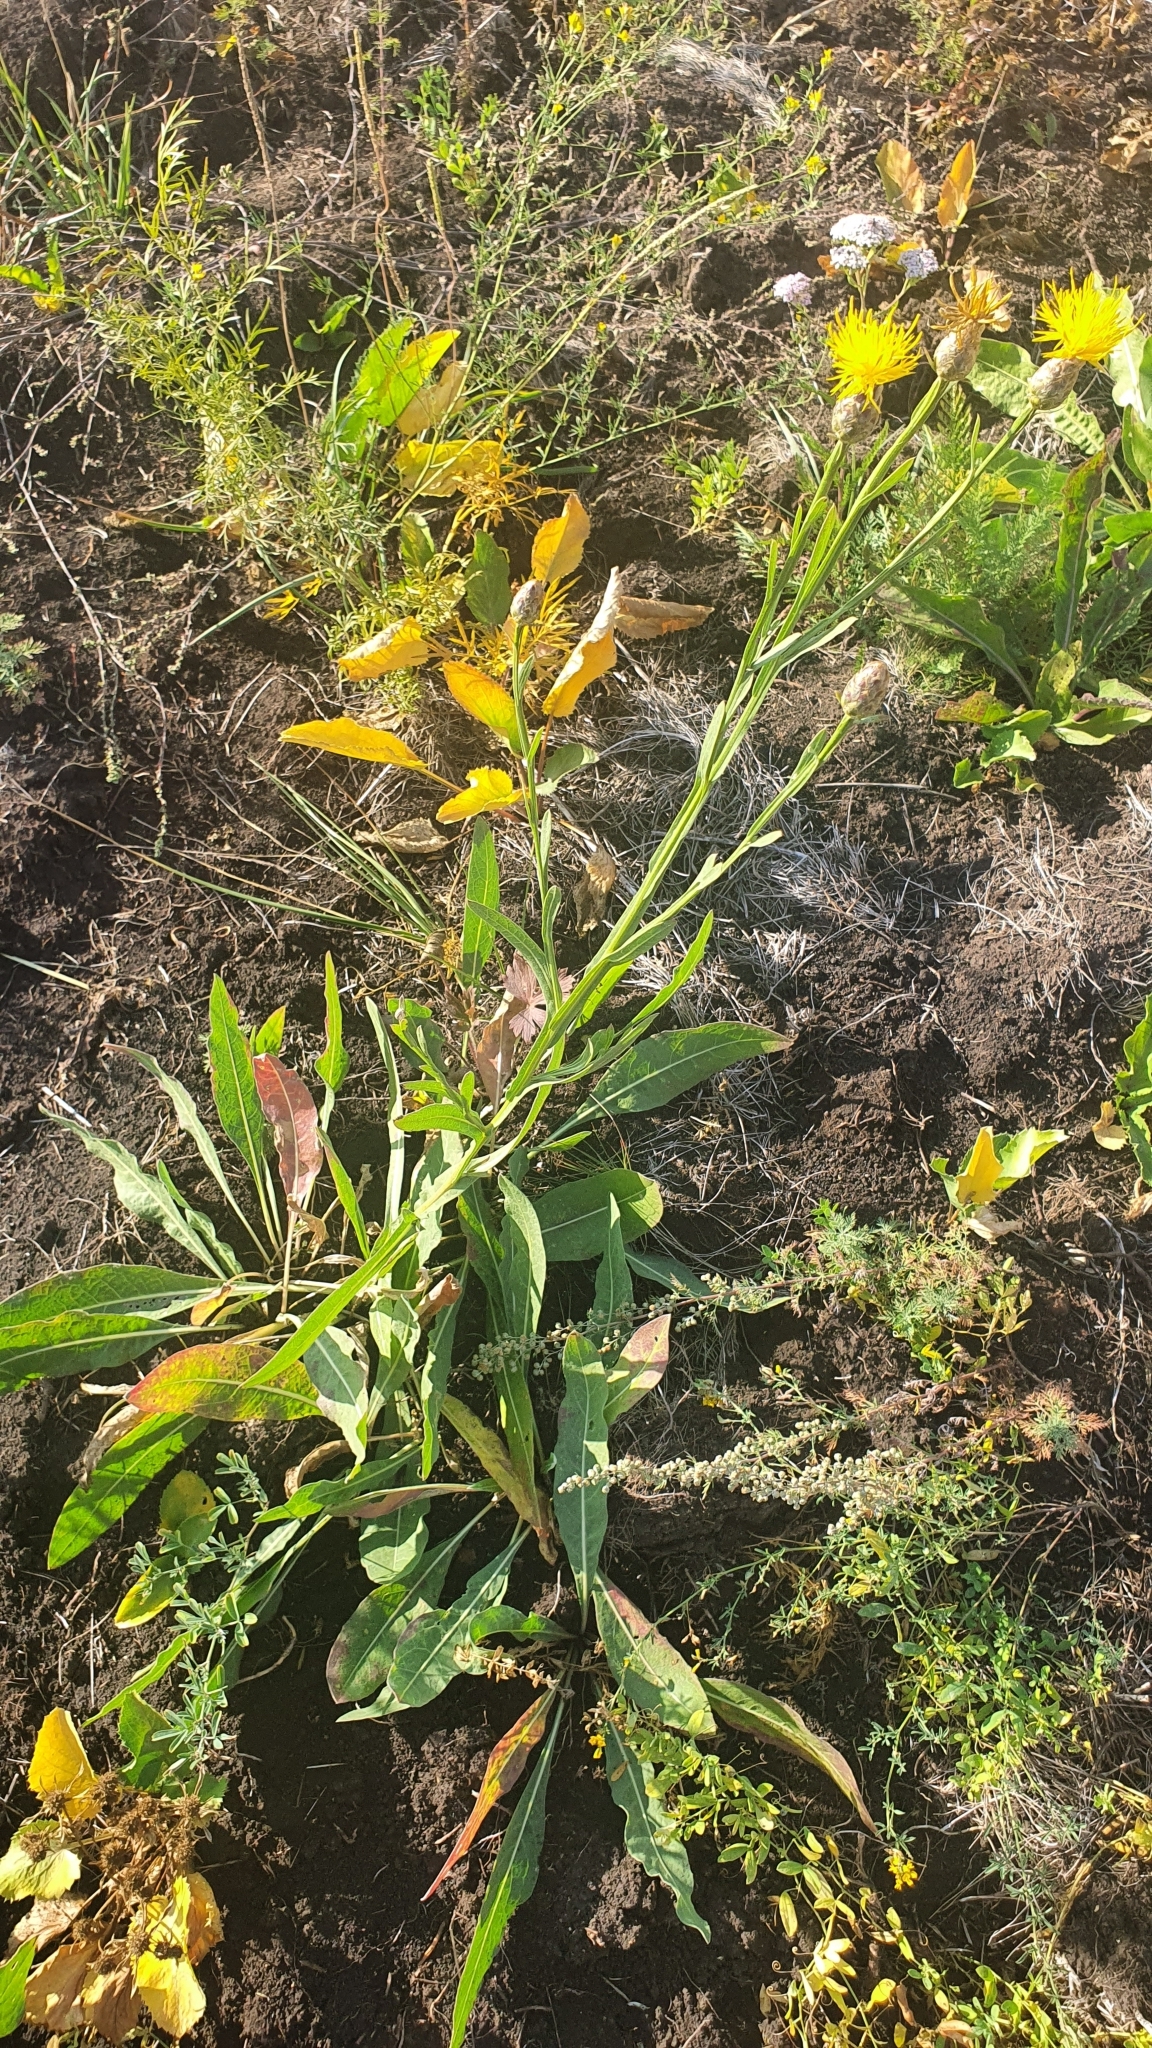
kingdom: Plantae
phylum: Tracheophyta
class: Magnoliopsida
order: Asterales
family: Asteraceae
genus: Centaurea
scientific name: Centaurea glastifolia
